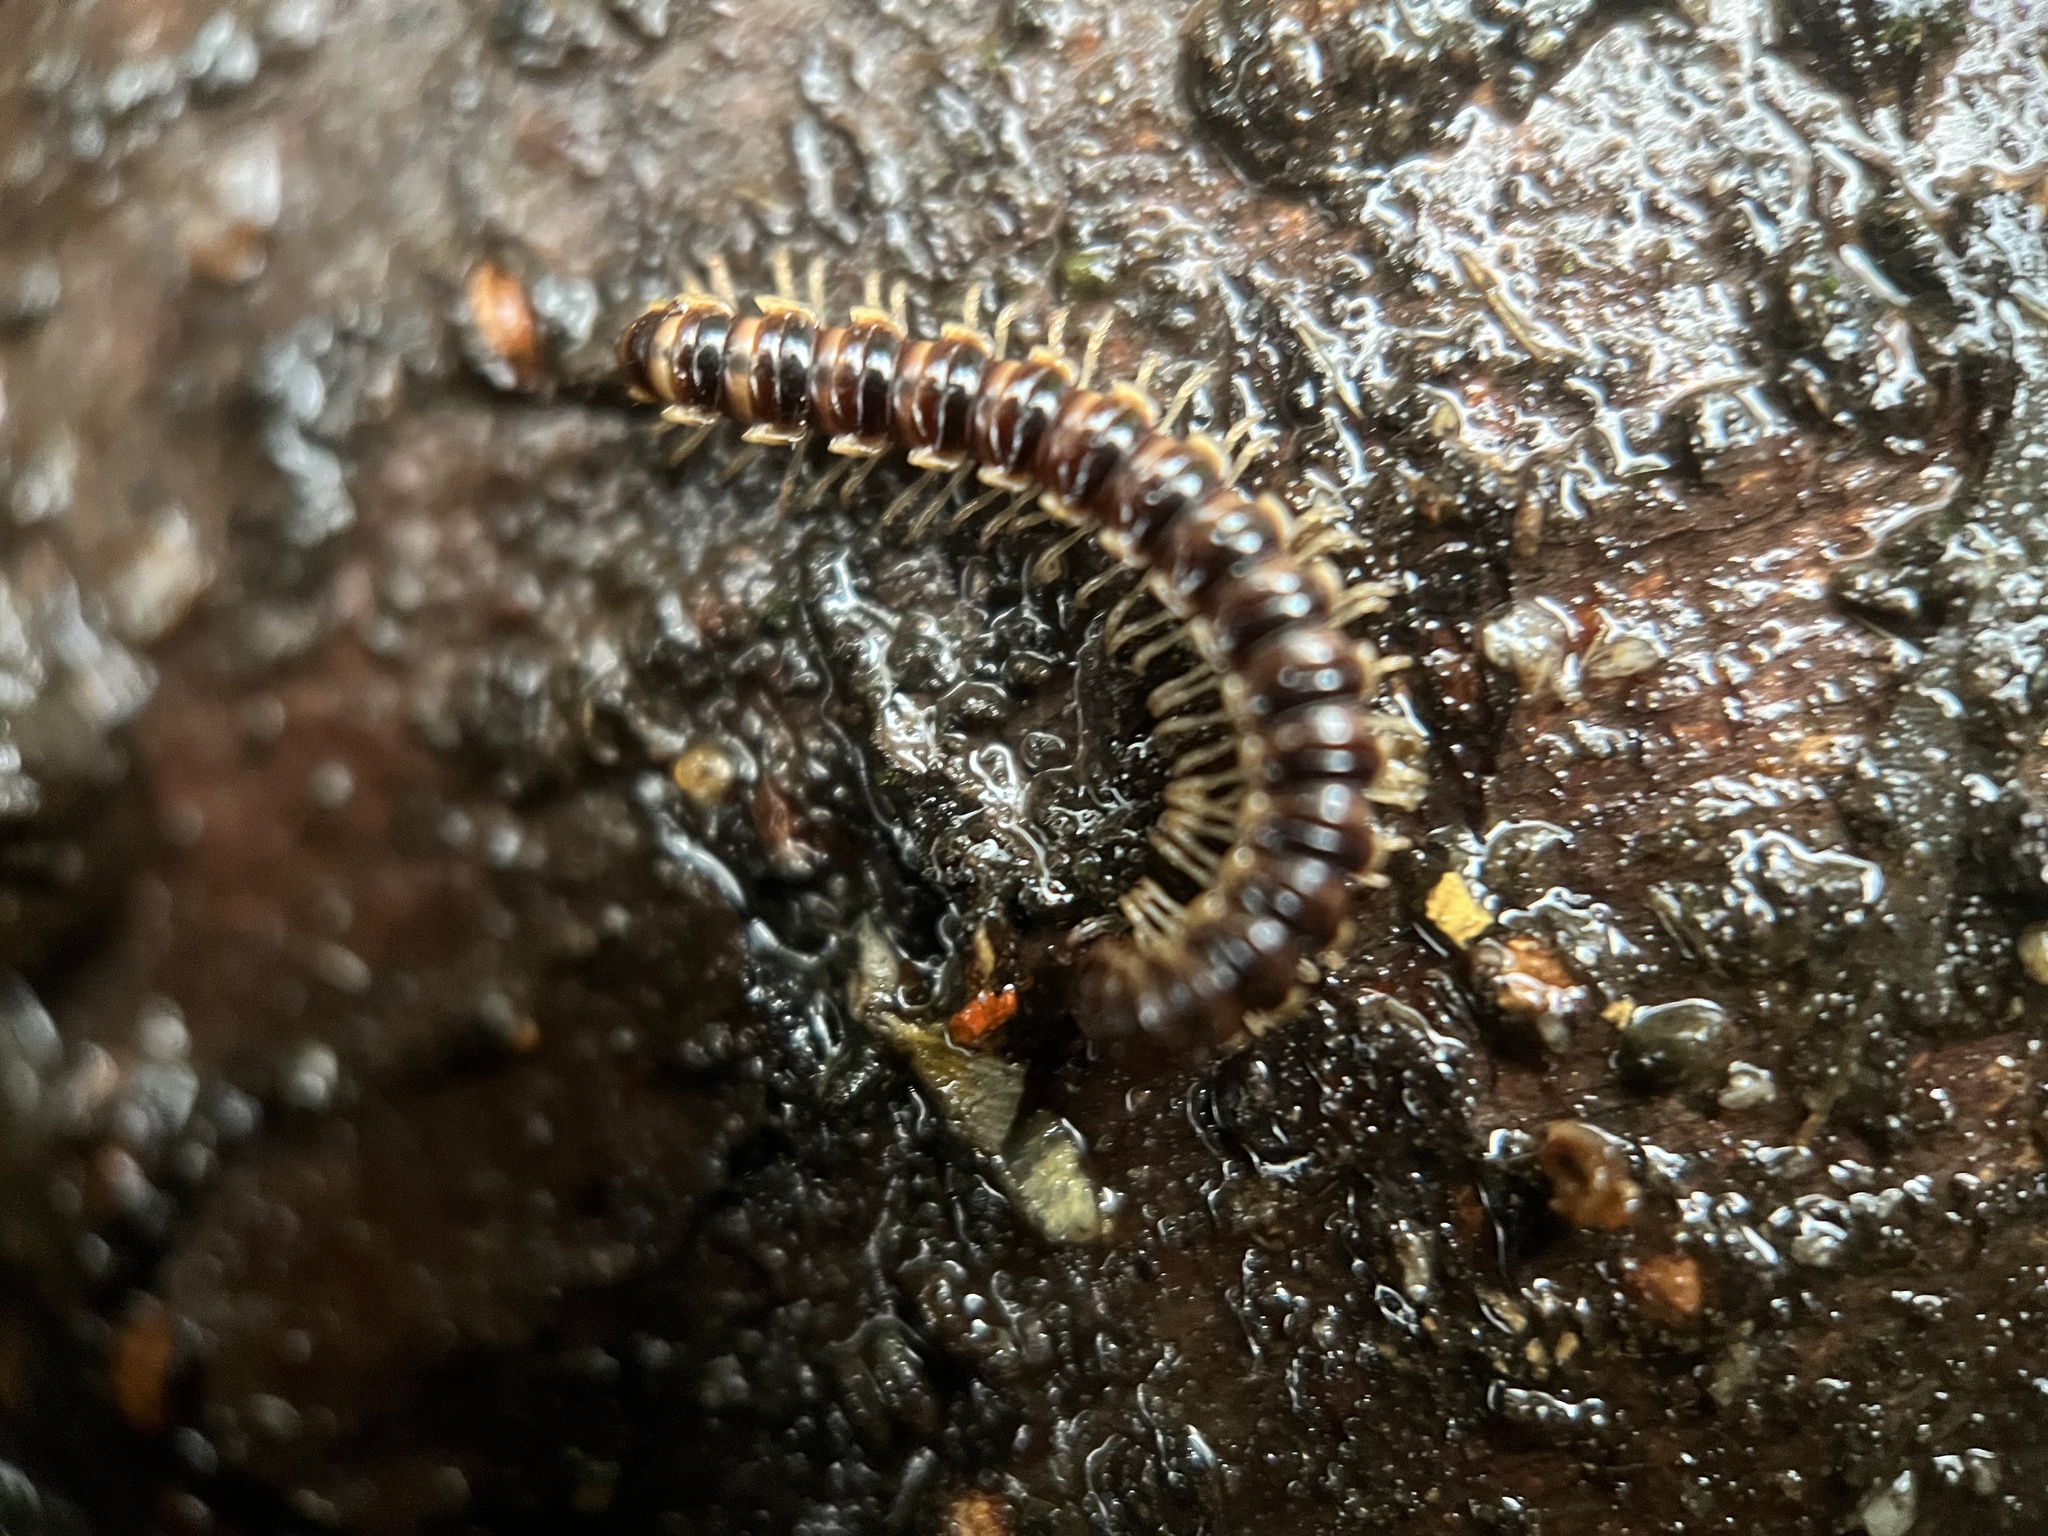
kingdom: Animalia
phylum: Arthropoda
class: Diplopoda
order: Polydesmida
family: Paradoxosomatidae
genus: Oxidus
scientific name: Oxidus gracilis
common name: Greenhouse millipede
